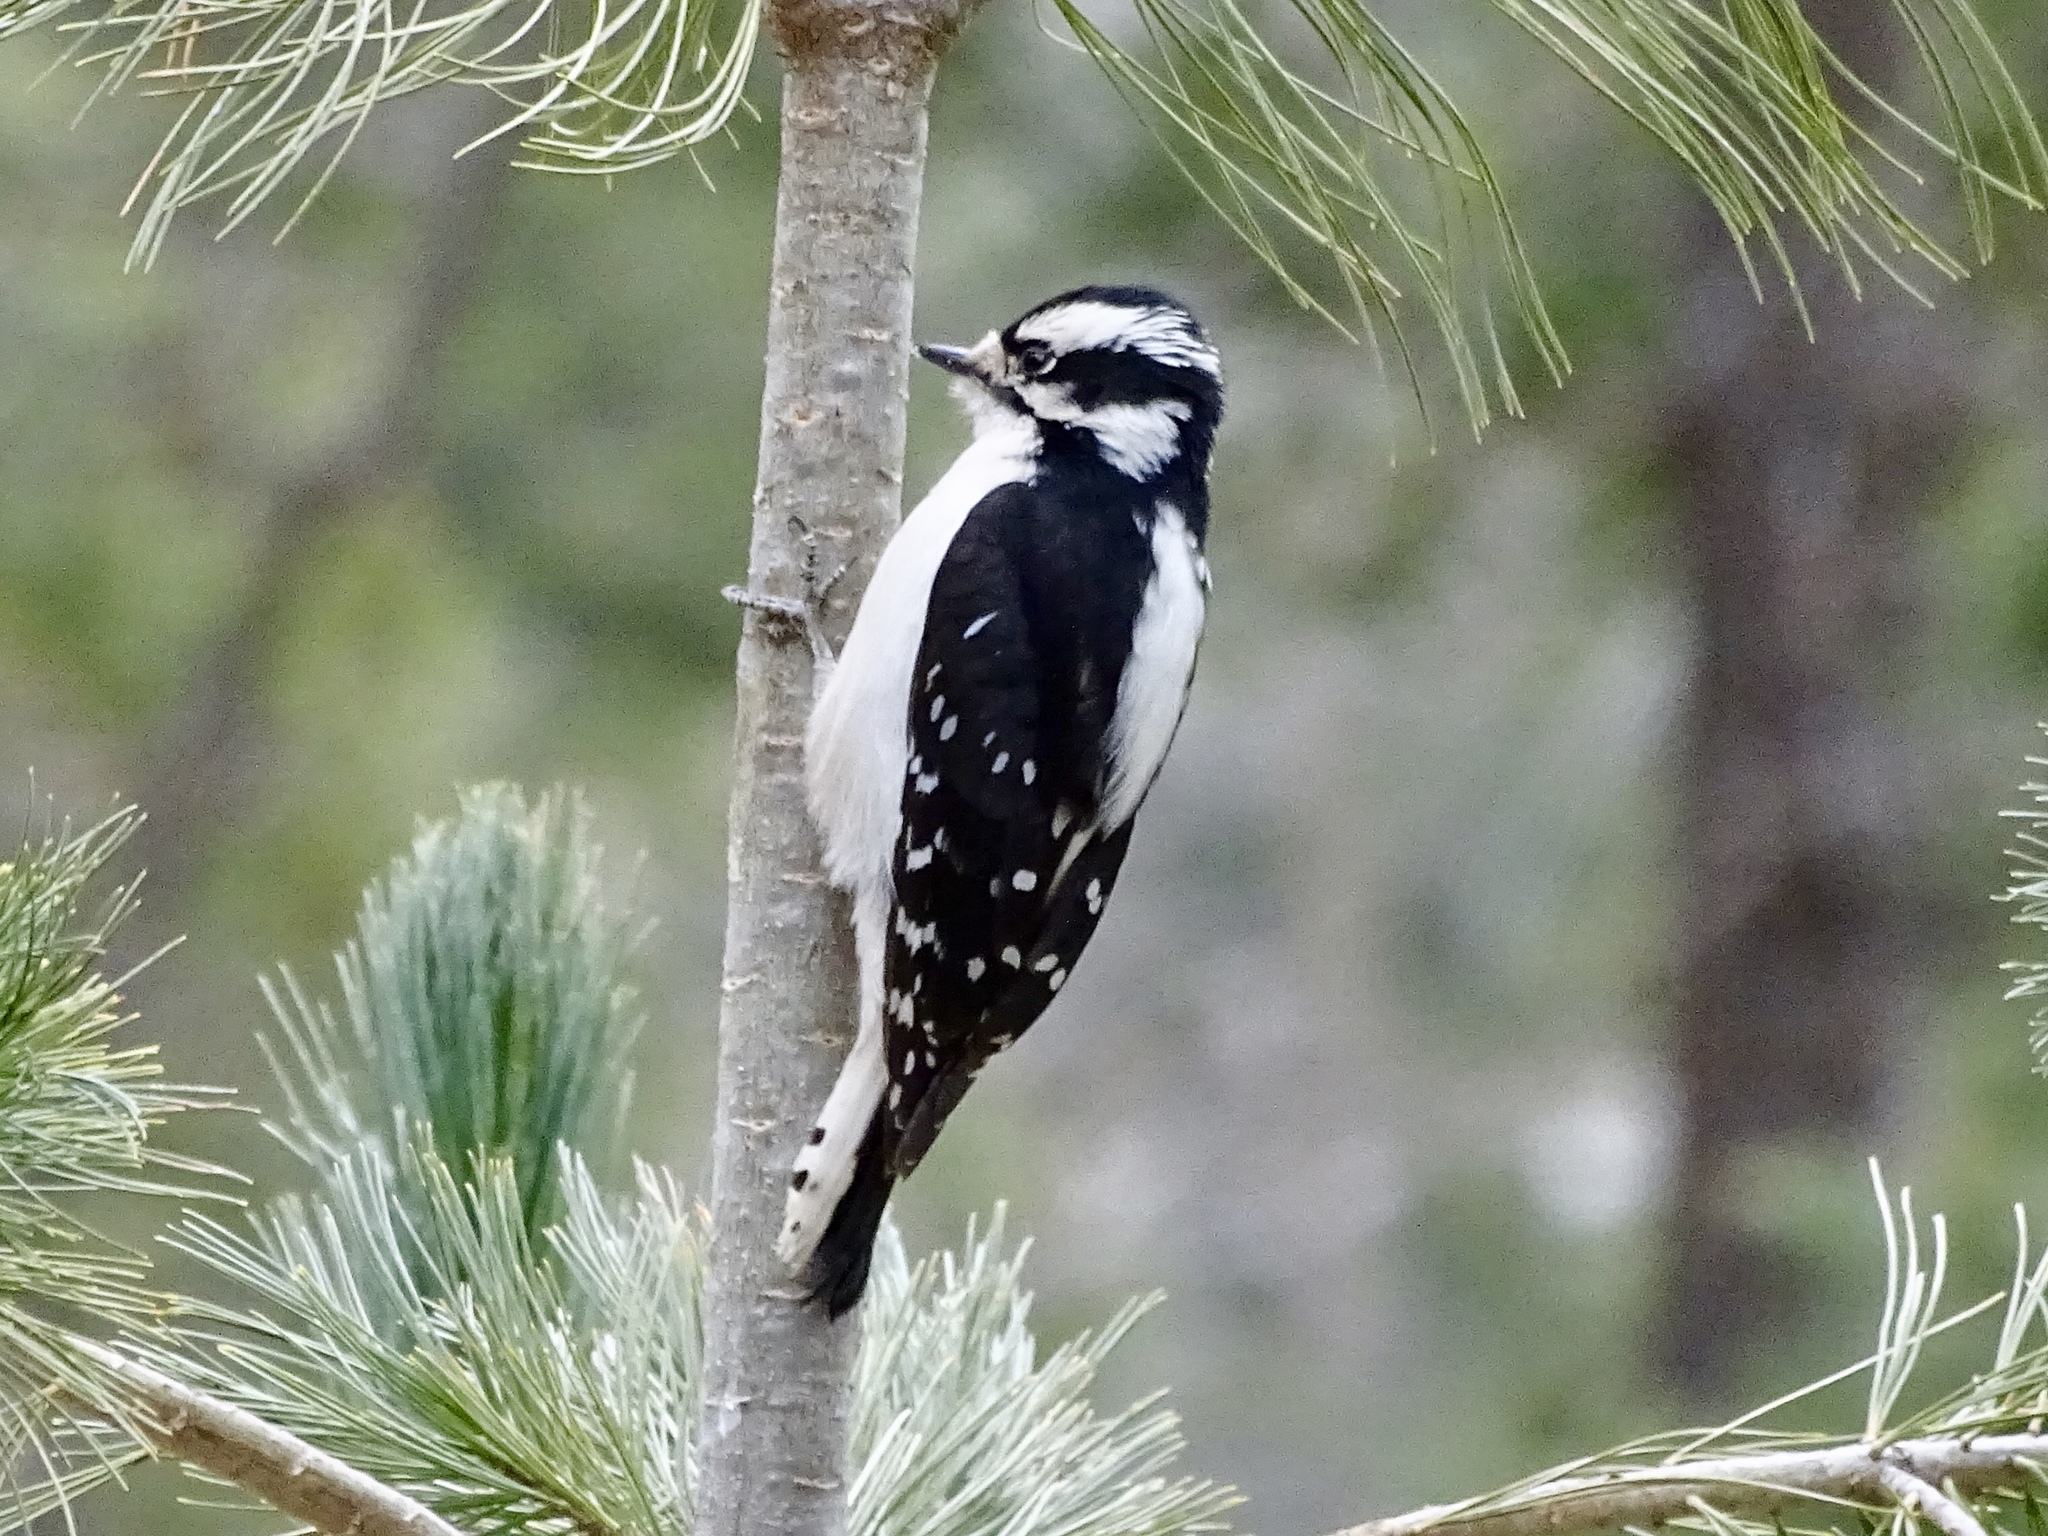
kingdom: Animalia
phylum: Chordata
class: Aves
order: Piciformes
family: Picidae
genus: Dryobates
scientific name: Dryobates pubescens
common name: Downy woodpecker
